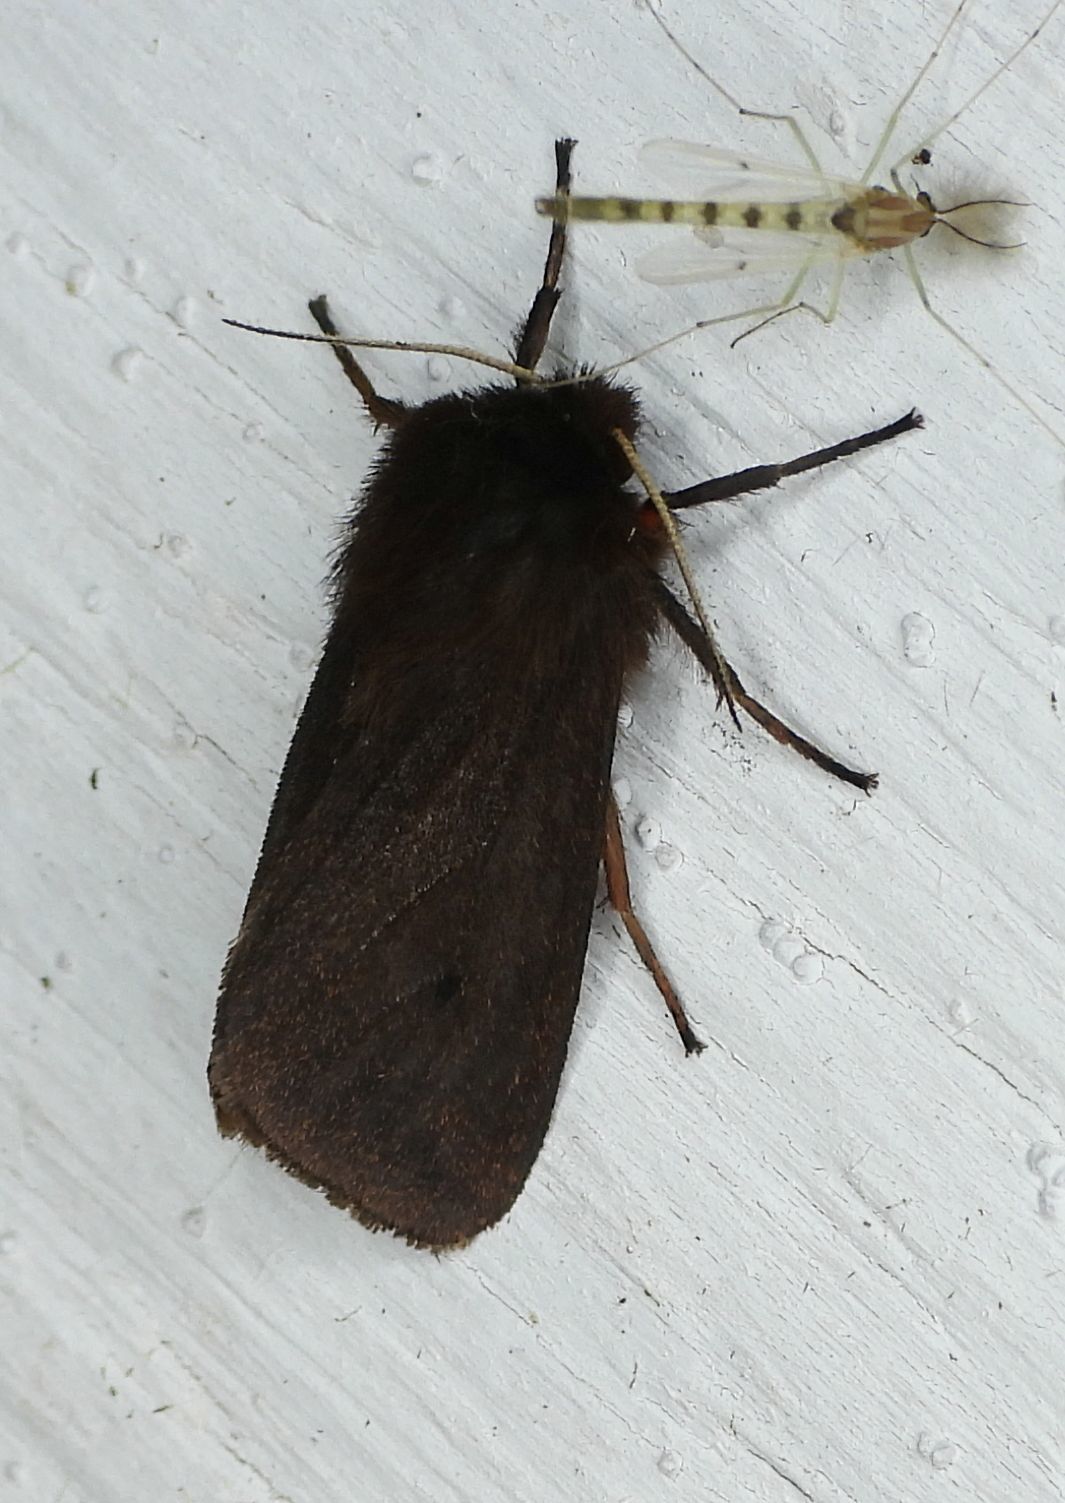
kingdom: Animalia
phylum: Arthropoda
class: Insecta
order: Lepidoptera
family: Erebidae
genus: Phragmatobia
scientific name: Phragmatobia fuliginosa
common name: Ruby tiger
